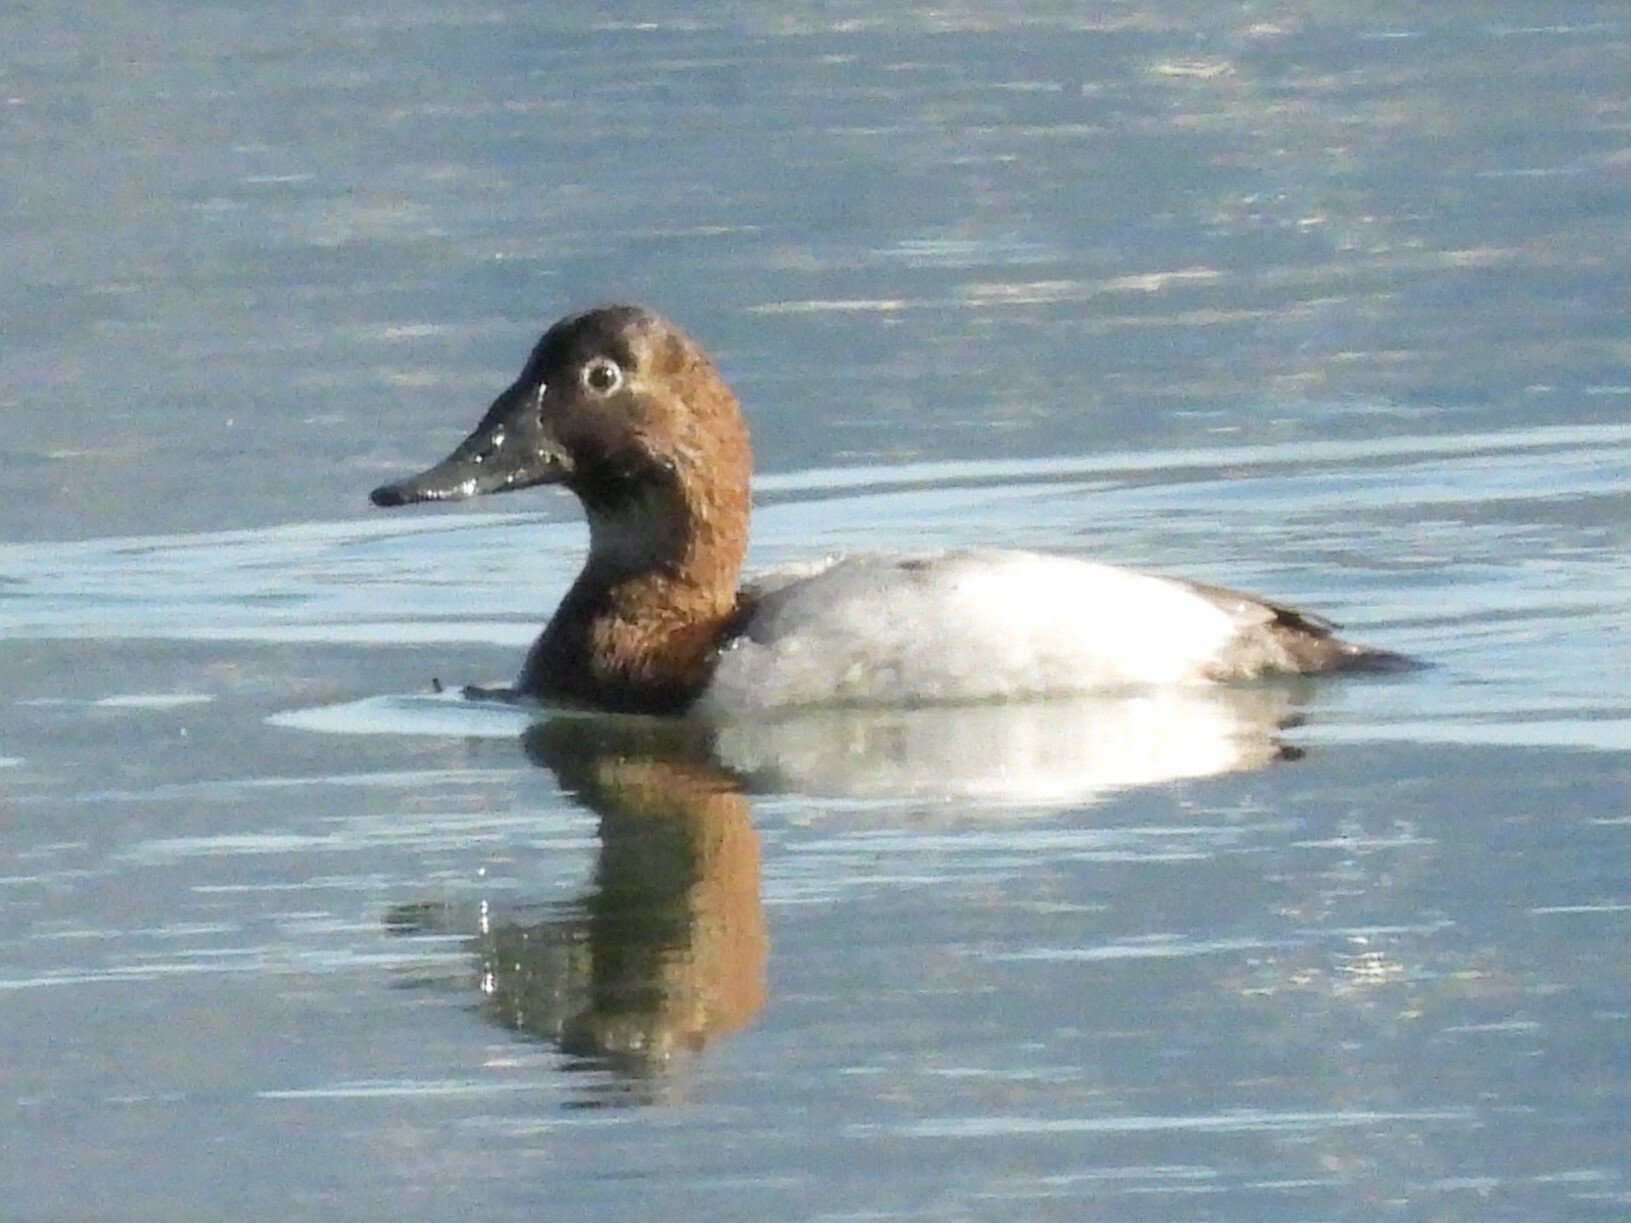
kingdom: Animalia
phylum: Chordata
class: Aves
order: Anseriformes
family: Anatidae
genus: Aythya
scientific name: Aythya valisineria
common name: Canvasback
